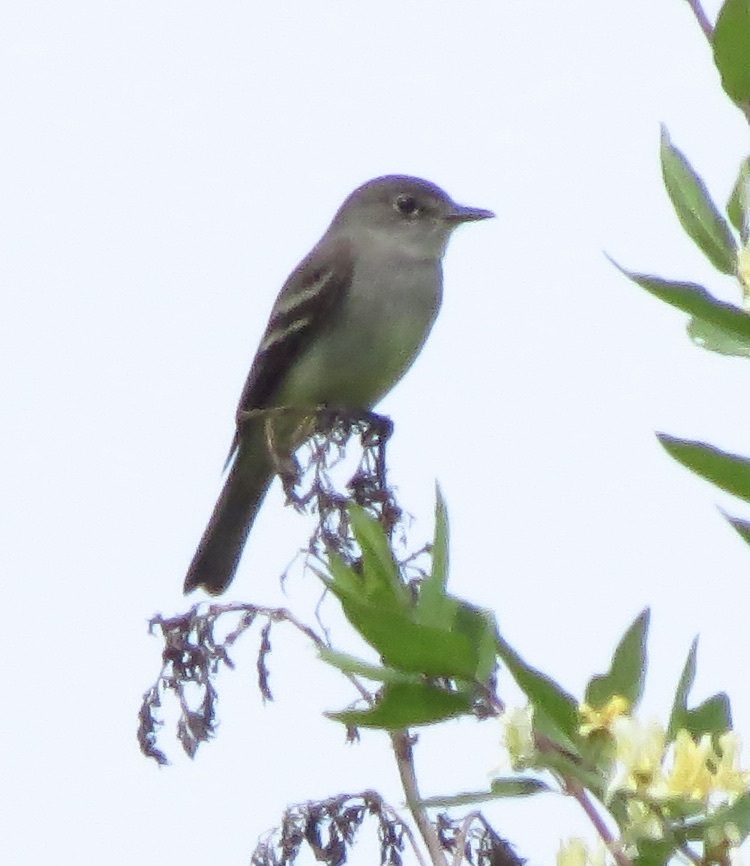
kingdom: Animalia
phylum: Chordata
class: Aves
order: Passeriformes
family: Tyrannidae
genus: Empidonax
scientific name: Empidonax
